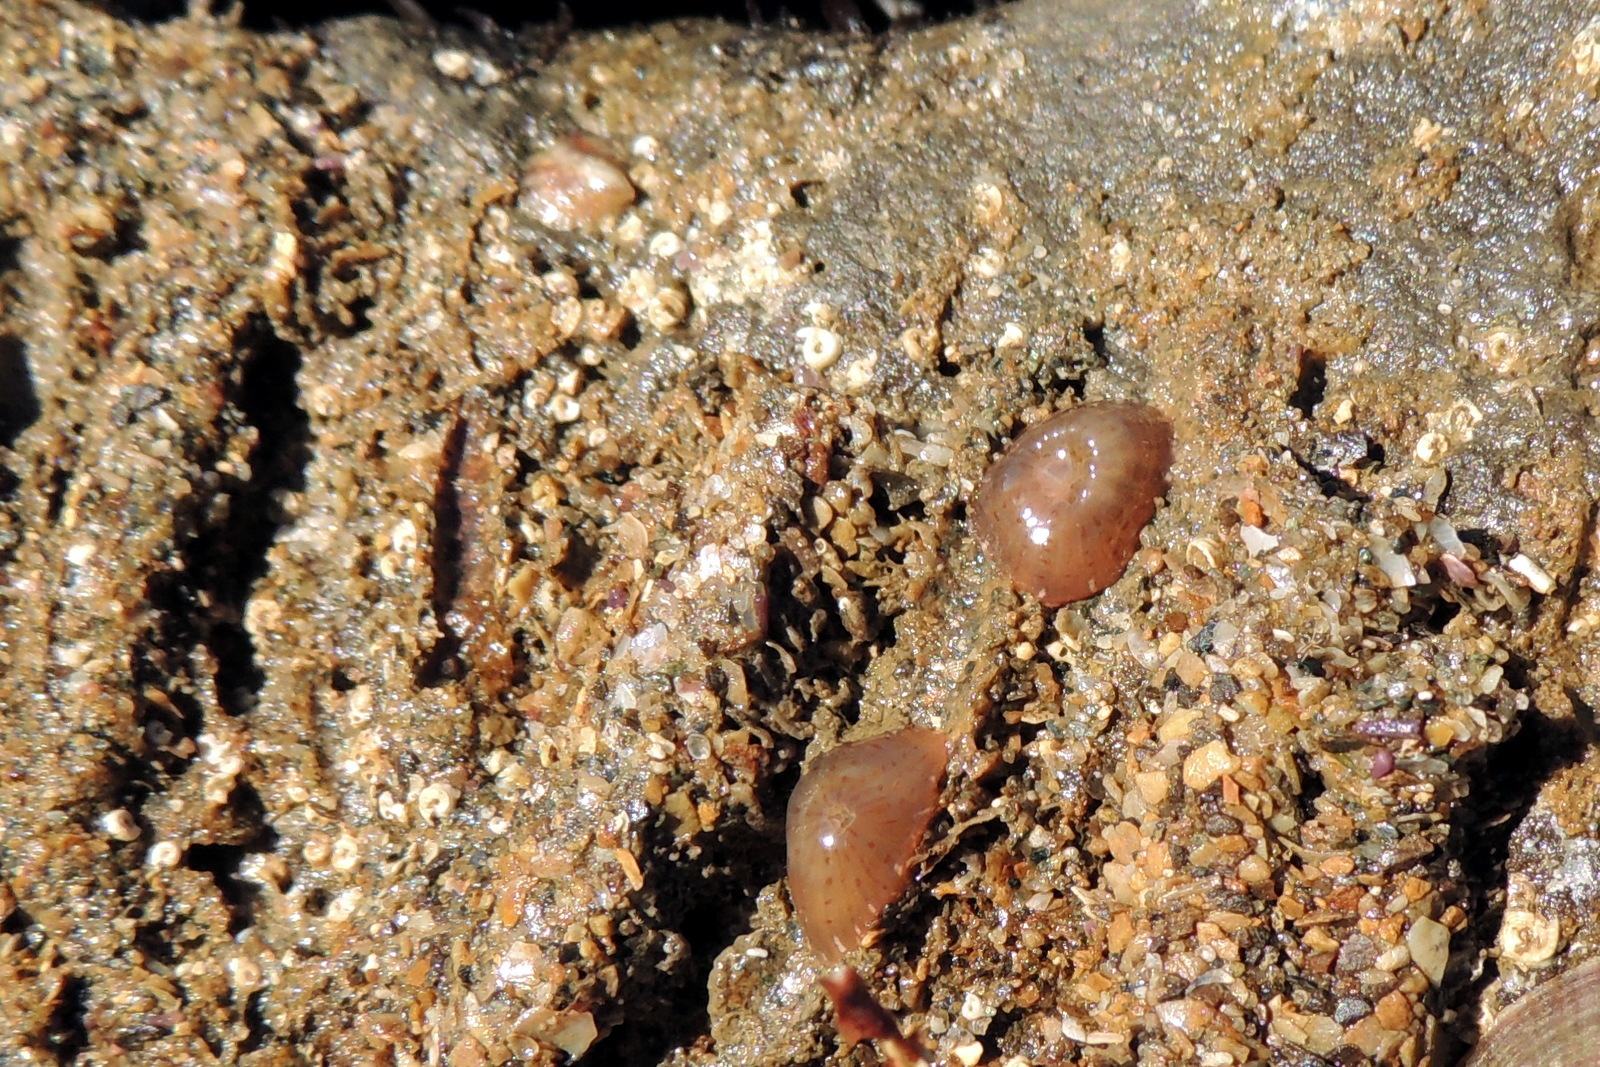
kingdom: Animalia
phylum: Cnidaria
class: Anthozoa
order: Actiniaria
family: Actiniidae
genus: Anthopleura
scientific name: Anthopleura mariae
